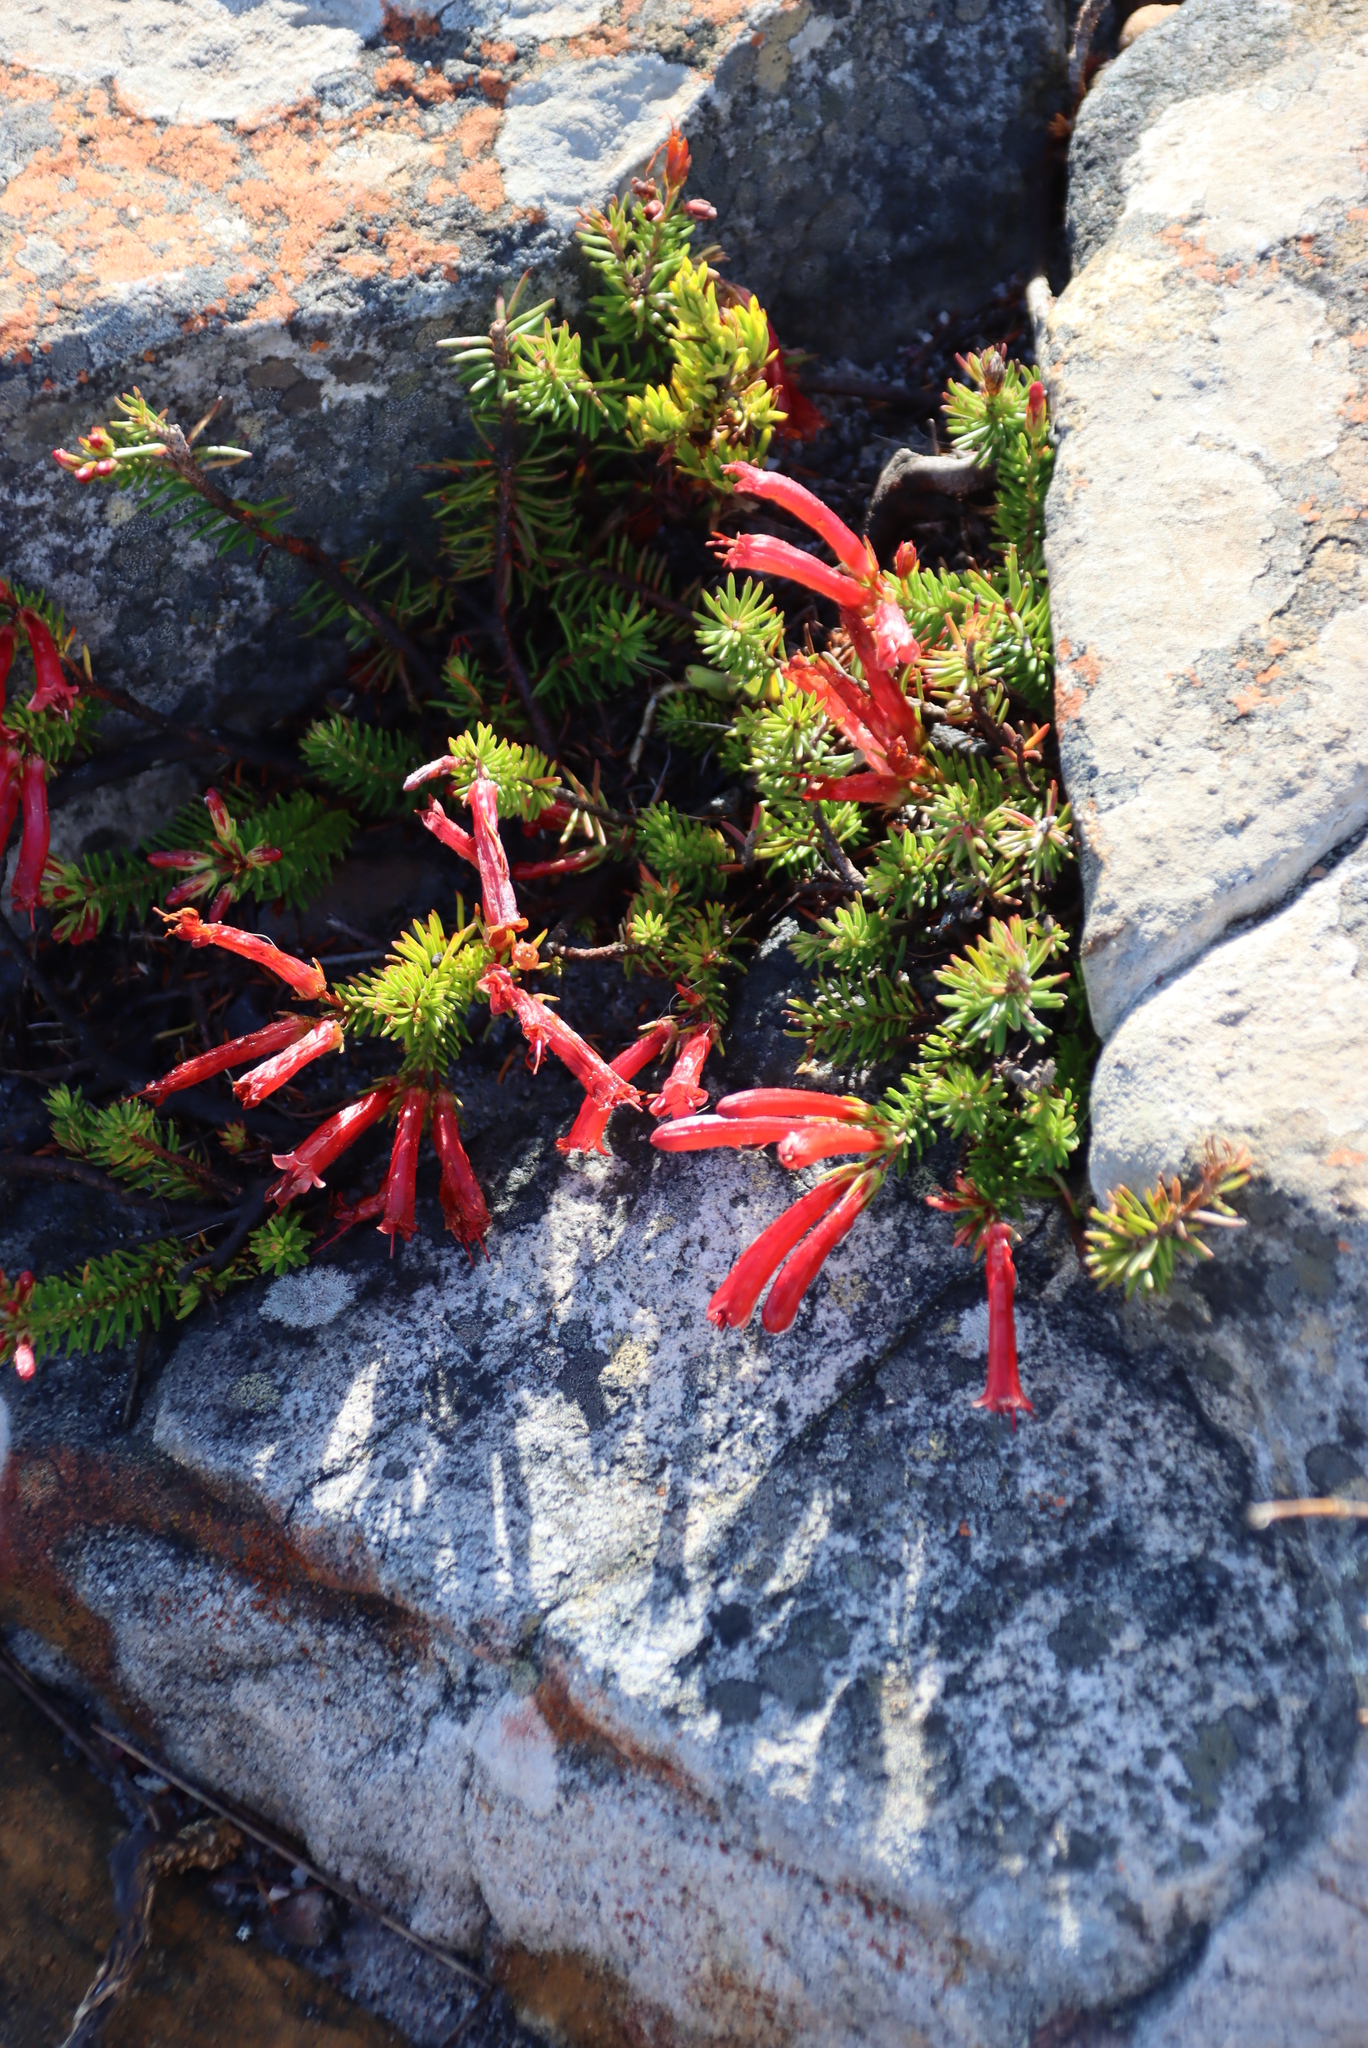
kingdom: Plantae
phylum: Tracheophyta
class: Magnoliopsida
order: Ericales
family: Ericaceae
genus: Erica
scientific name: Erica nevillei
